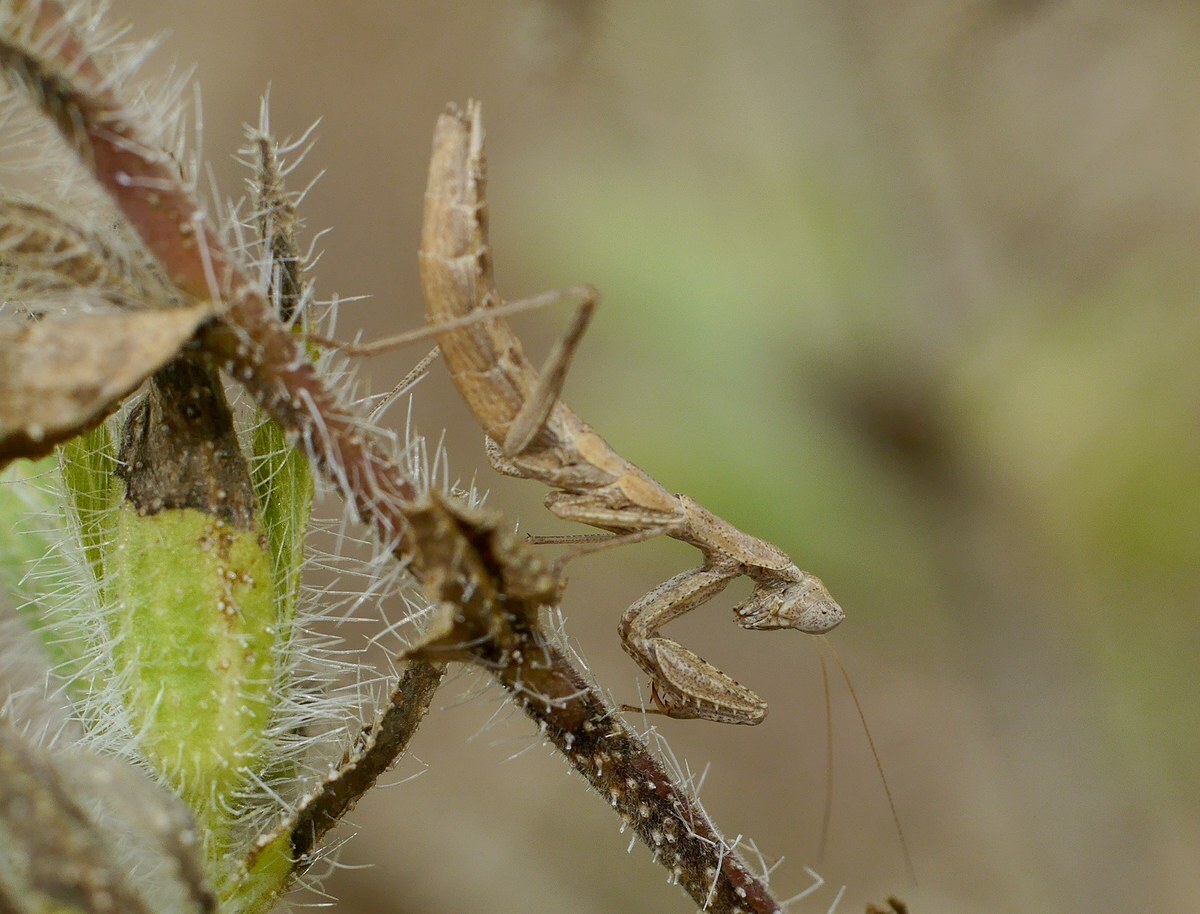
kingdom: Animalia
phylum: Arthropoda
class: Insecta
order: Mantodea
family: Amelidae
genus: Ameles
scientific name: Ameles heldreichi
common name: Heldreich's dwarf mantis
